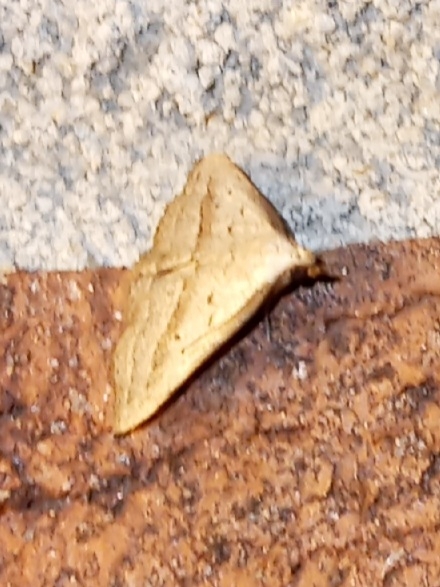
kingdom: Animalia
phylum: Arthropoda
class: Insecta
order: Lepidoptera
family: Erebidae
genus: Macrochilo
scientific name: Macrochilo hypocritalis
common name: Twin-dotted owlet
